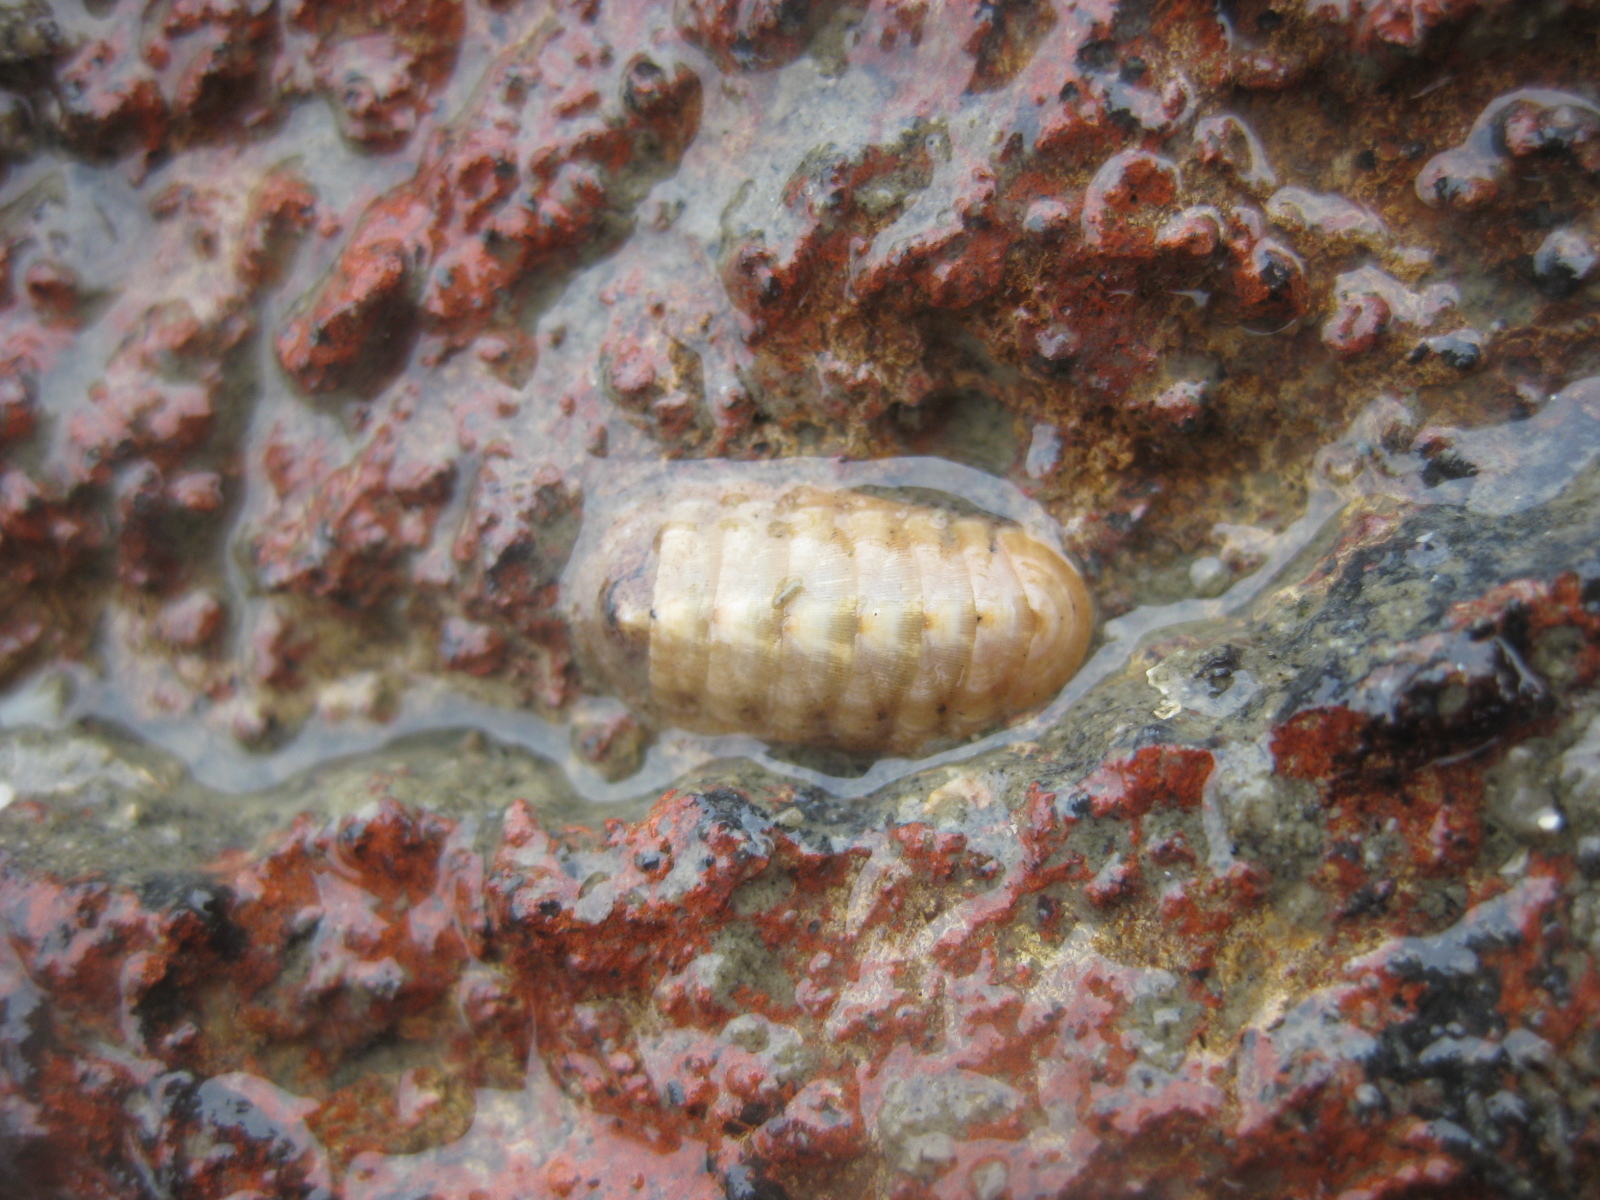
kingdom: Animalia
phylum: Mollusca
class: Polyplacophora
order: Lepidopleurida
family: Leptochitonidae
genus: Leptochiton
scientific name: Leptochiton inquinatus
